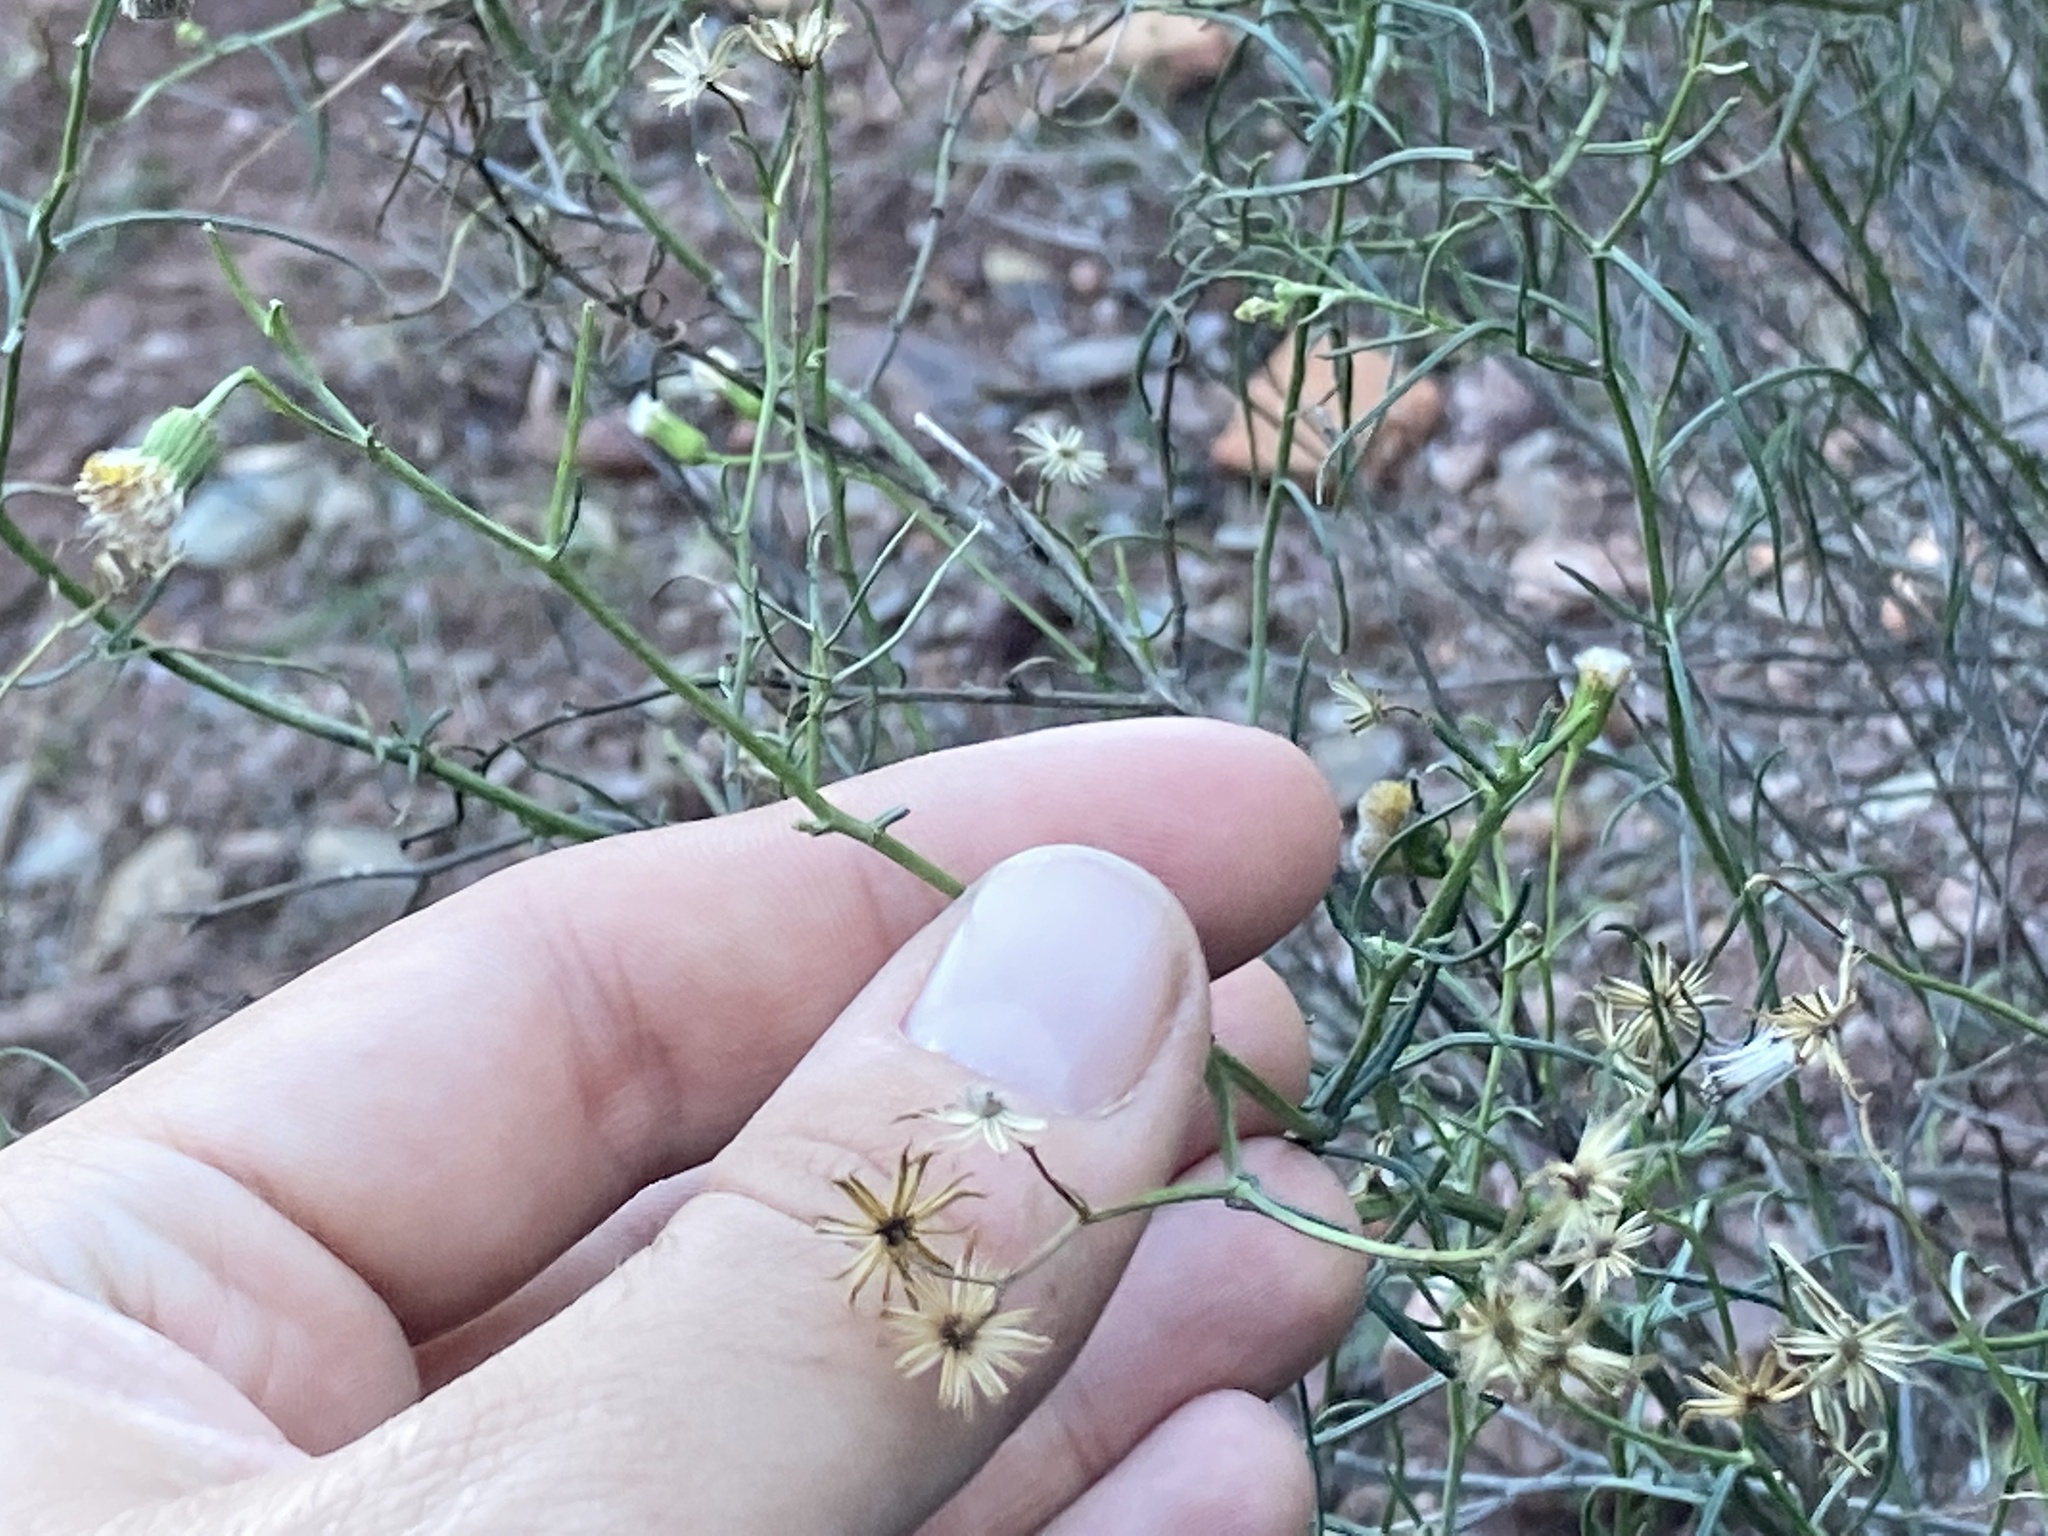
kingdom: Plantae
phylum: Tracheophyta
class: Magnoliopsida
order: Asterales
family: Asteraceae
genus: Senecio
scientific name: Senecio inaequidens
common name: Narrow-leaved ragwort
